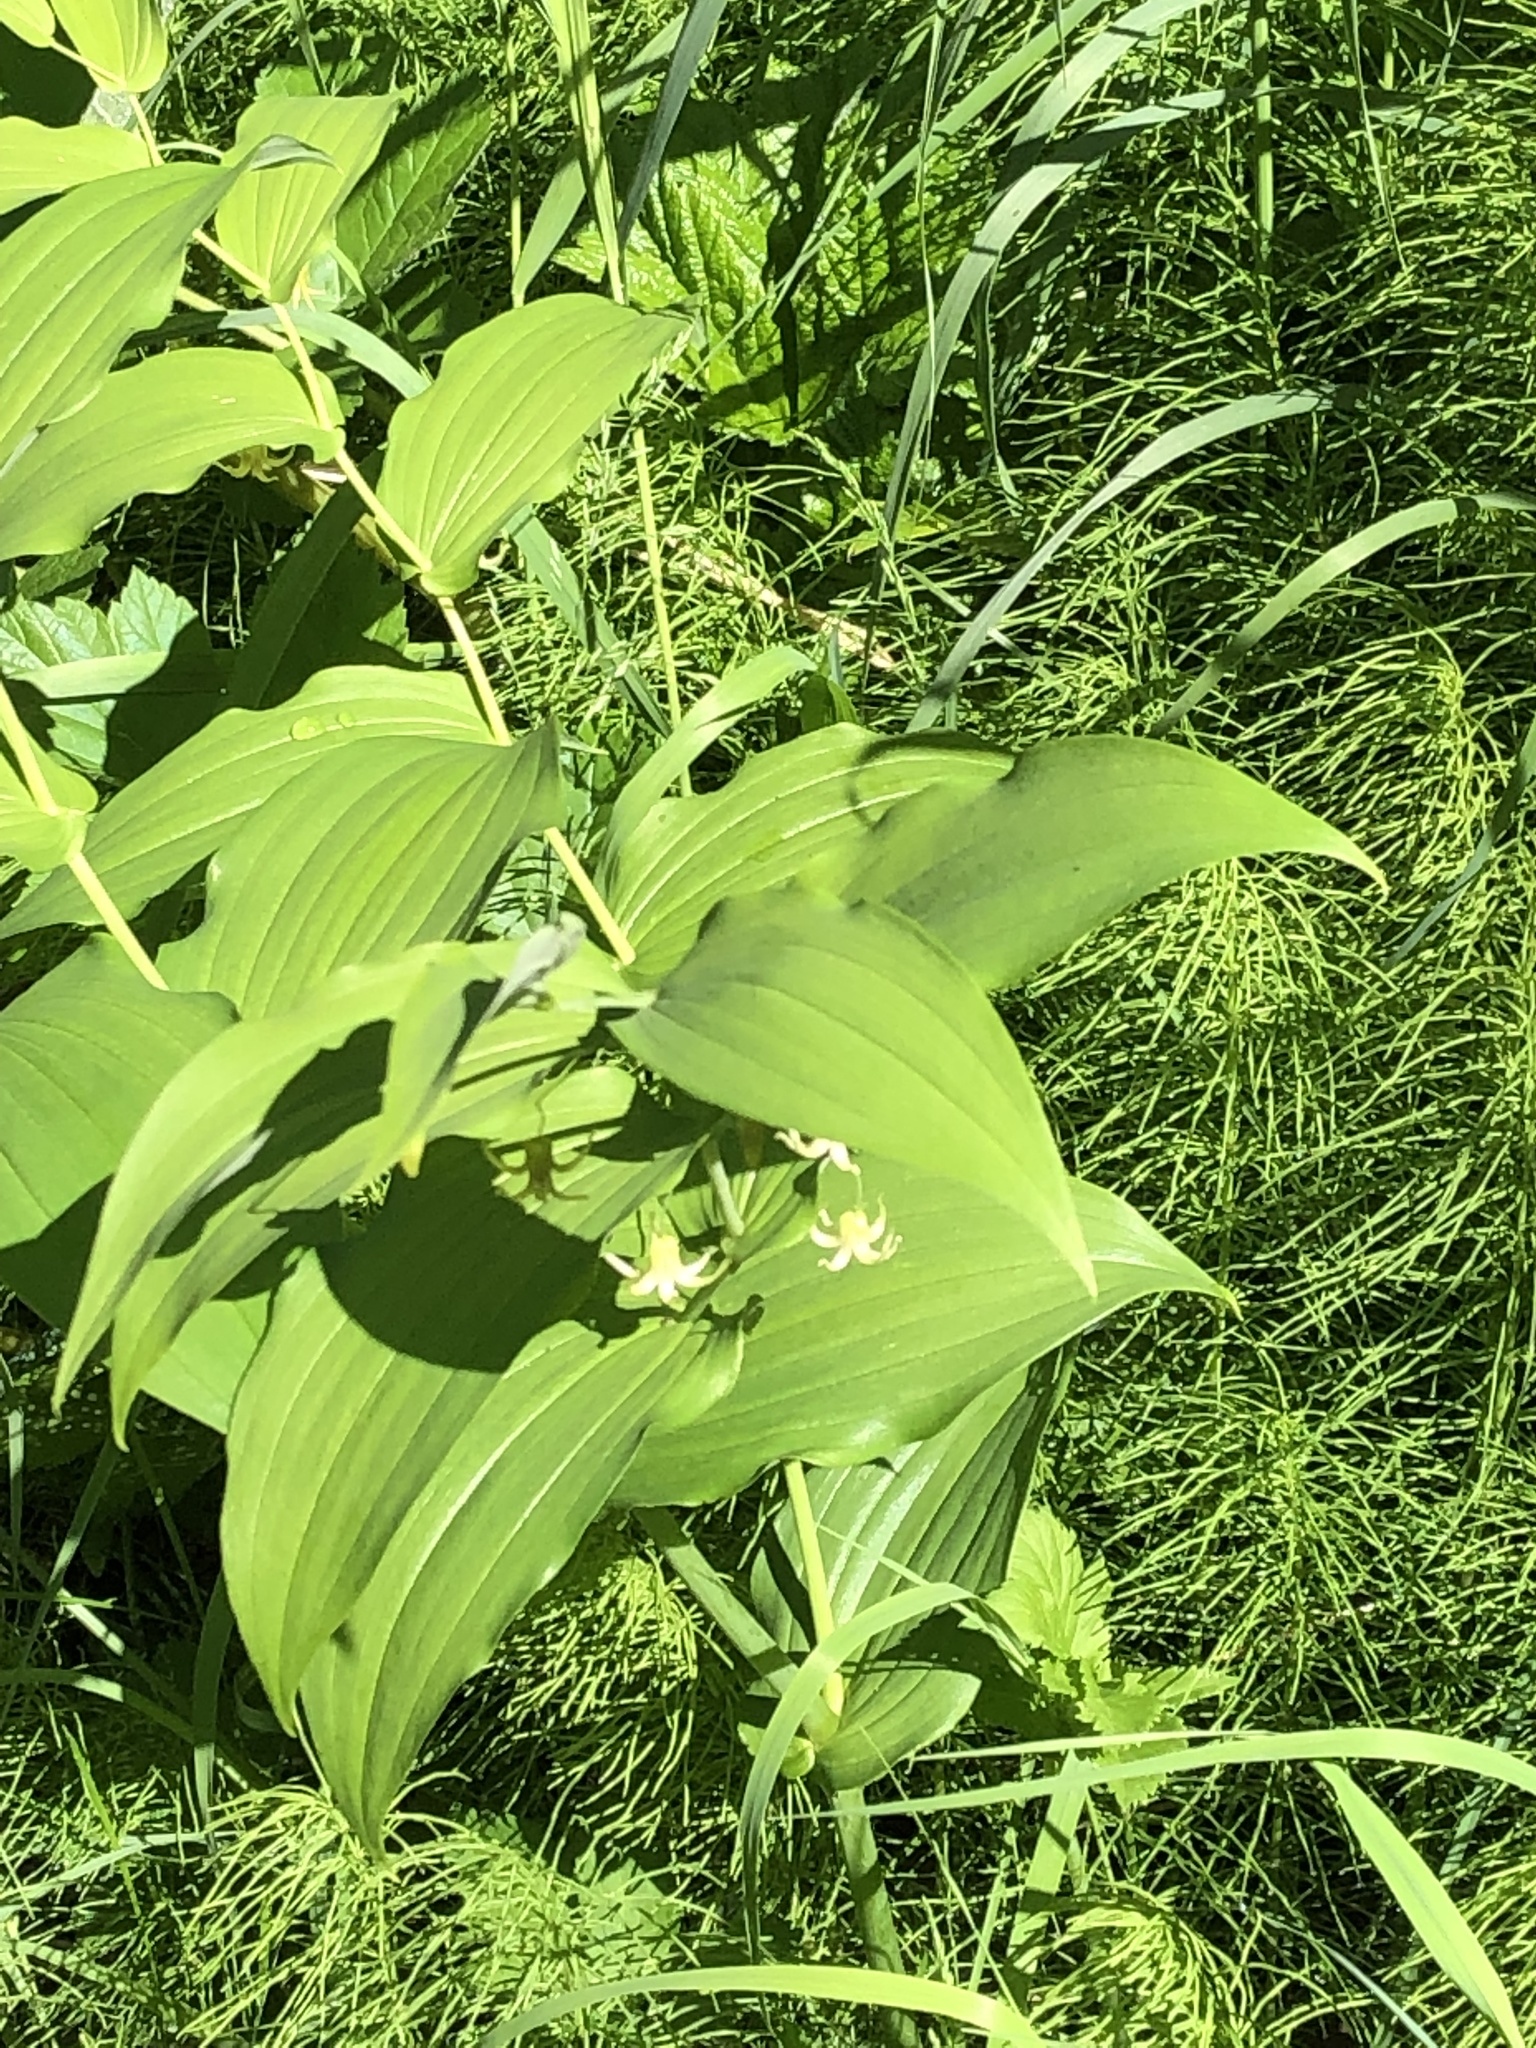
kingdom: Plantae
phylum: Tracheophyta
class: Liliopsida
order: Liliales
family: Liliaceae
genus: Streptopus
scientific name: Streptopus amplexifolius
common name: Clasp twisted stalk
